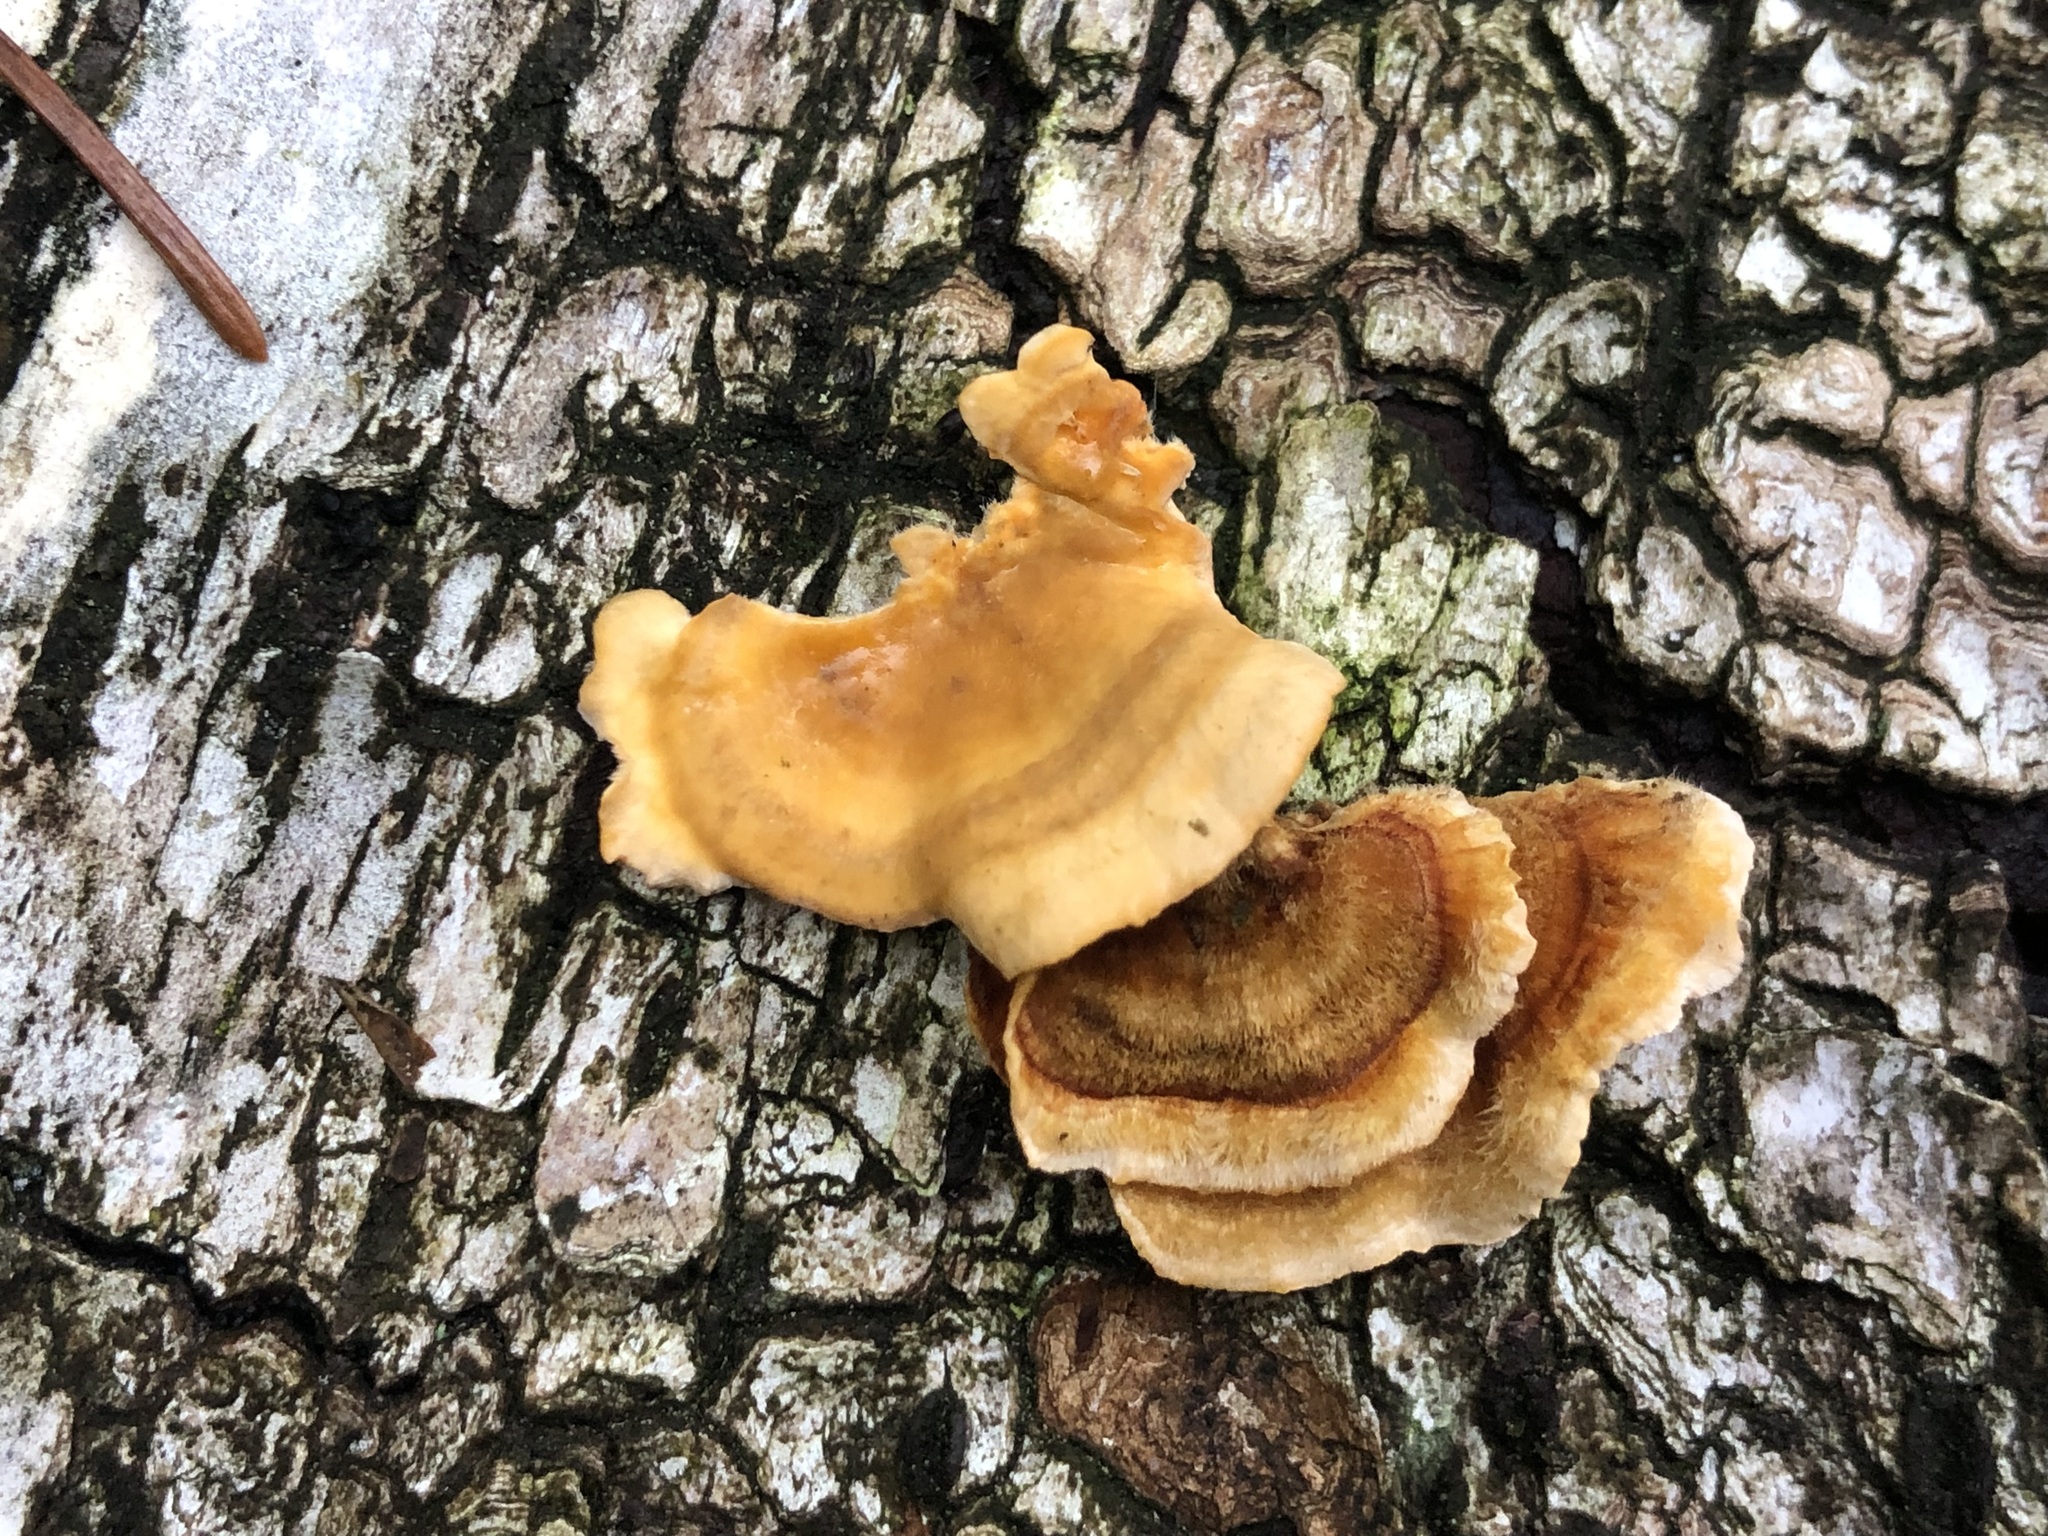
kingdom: Fungi
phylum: Basidiomycota
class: Agaricomycetes
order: Russulales
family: Stereaceae
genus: Stereum
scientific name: Stereum hirsutum
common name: Hairy curtain crust
